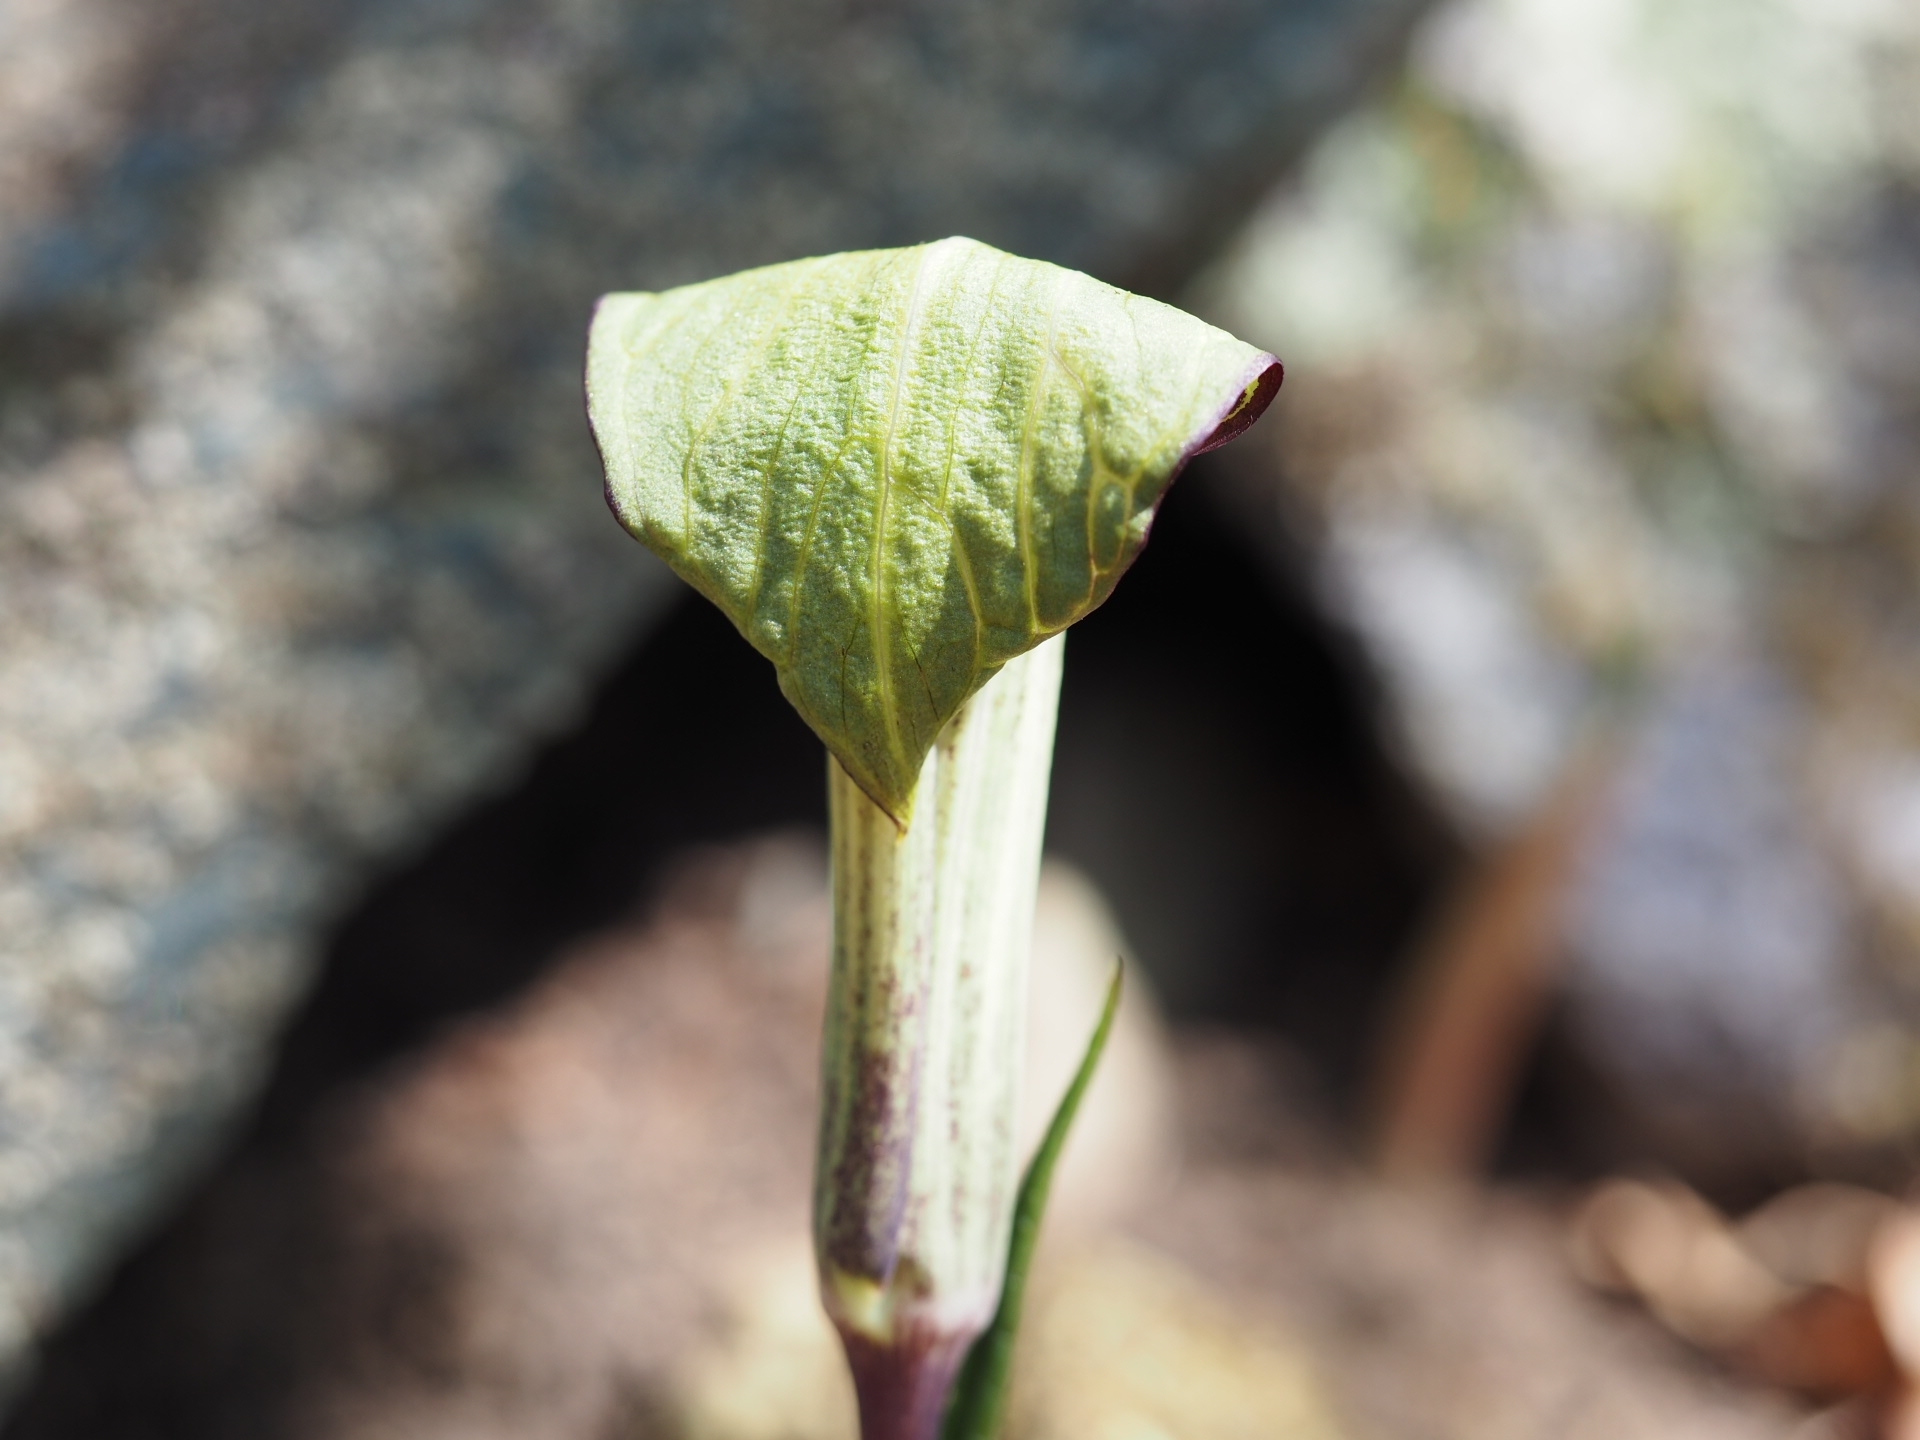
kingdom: Plantae
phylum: Tracheophyta
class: Liliopsida
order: Alismatales
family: Araceae
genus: Arisaema
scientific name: Arisaema triphyllum
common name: Jack-in-the-pulpit
